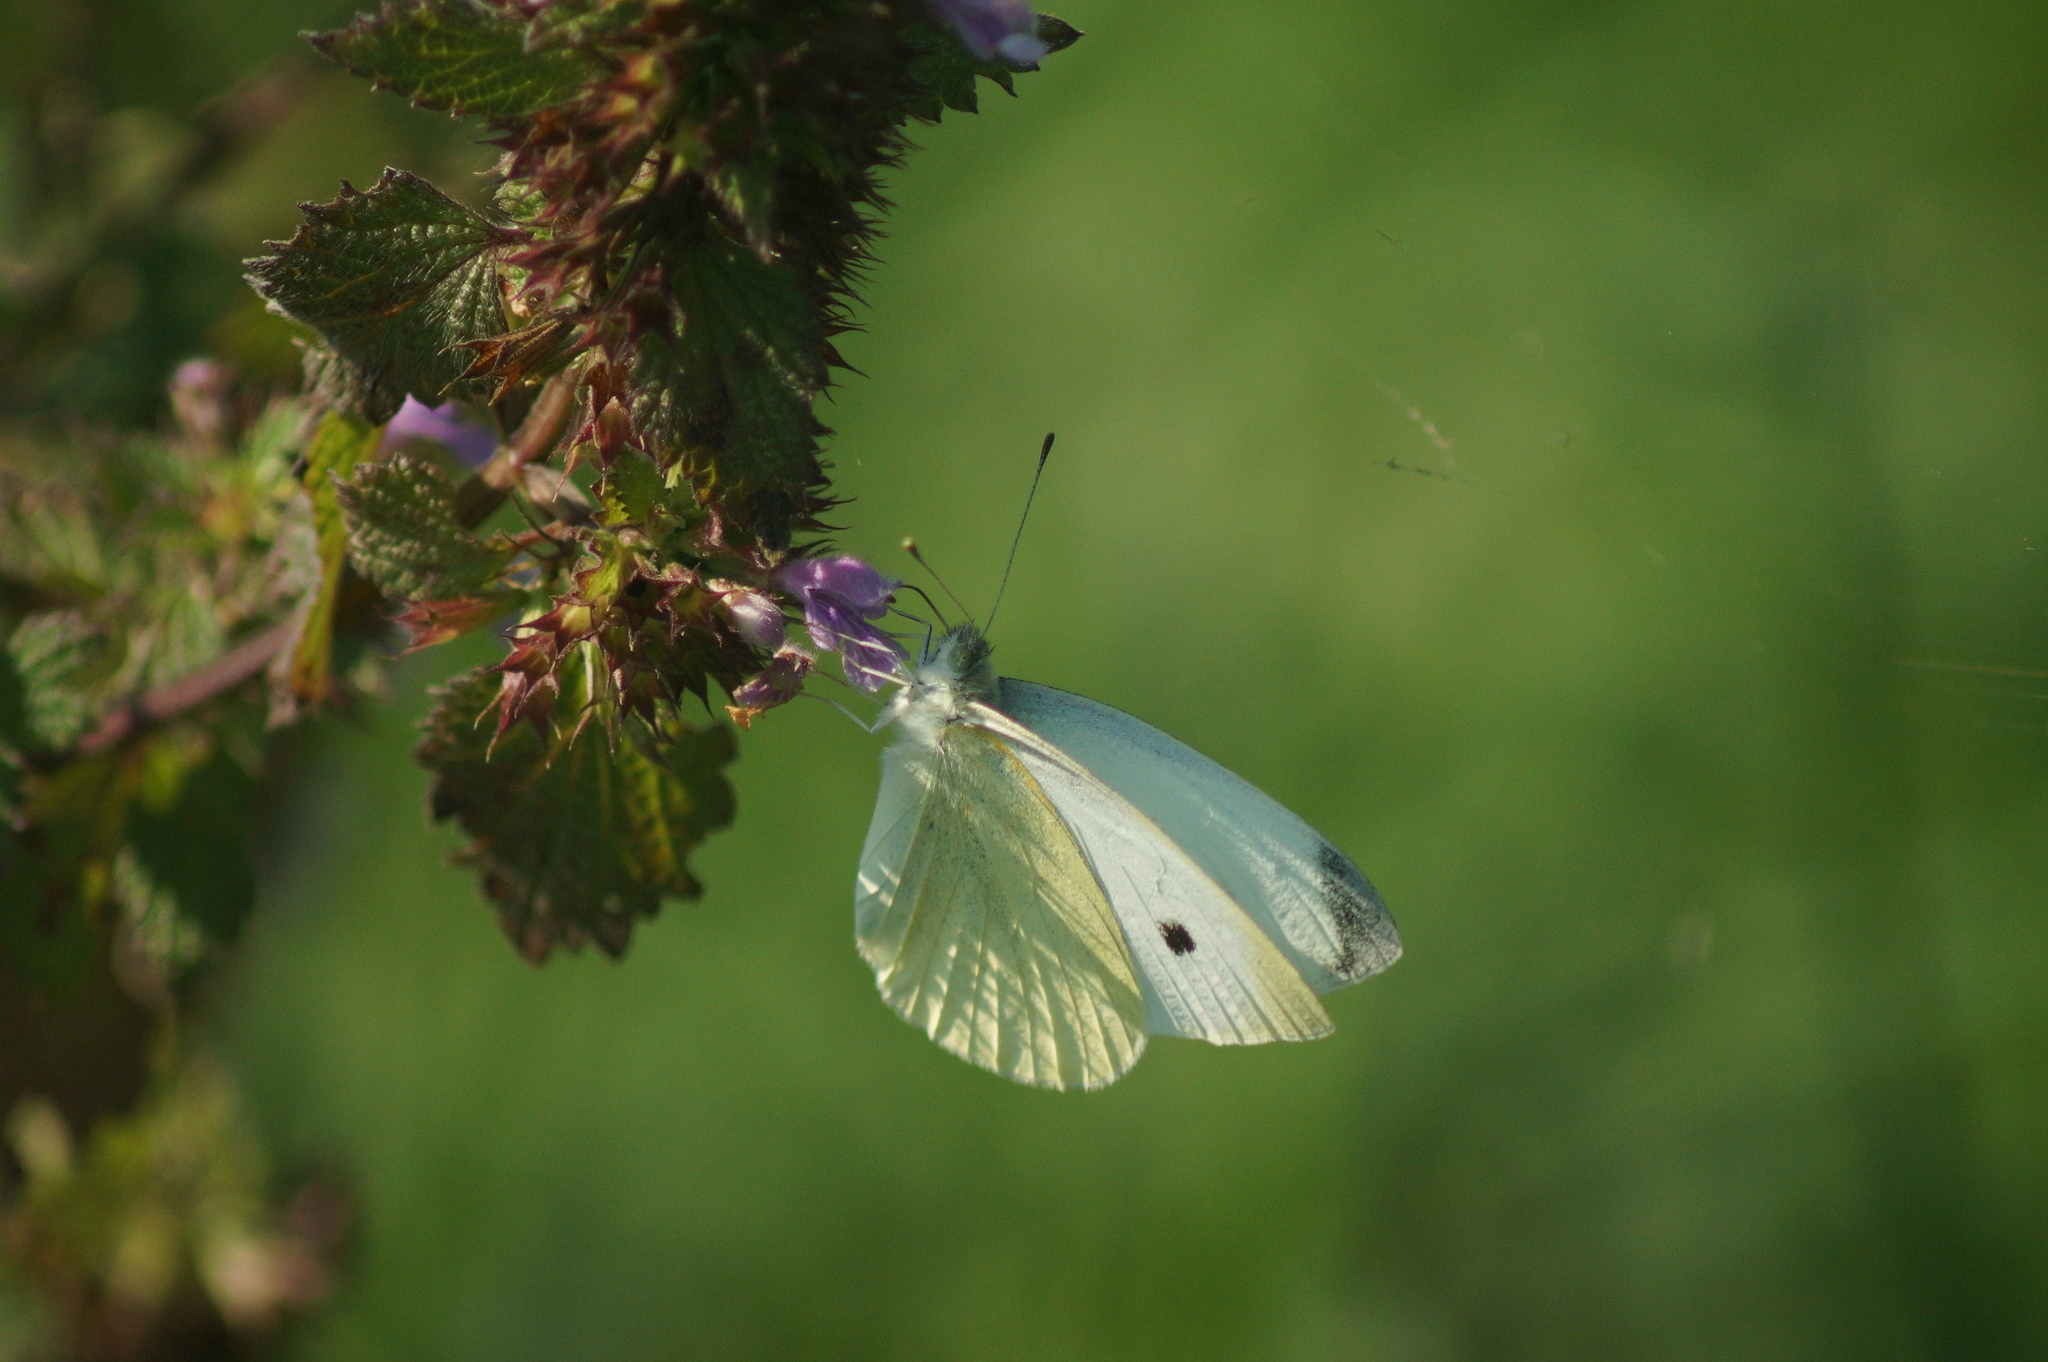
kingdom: Animalia
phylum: Arthropoda
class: Insecta
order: Lepidoptera
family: Pieridae
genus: Pieris
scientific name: Pieris rapae
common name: Small white
